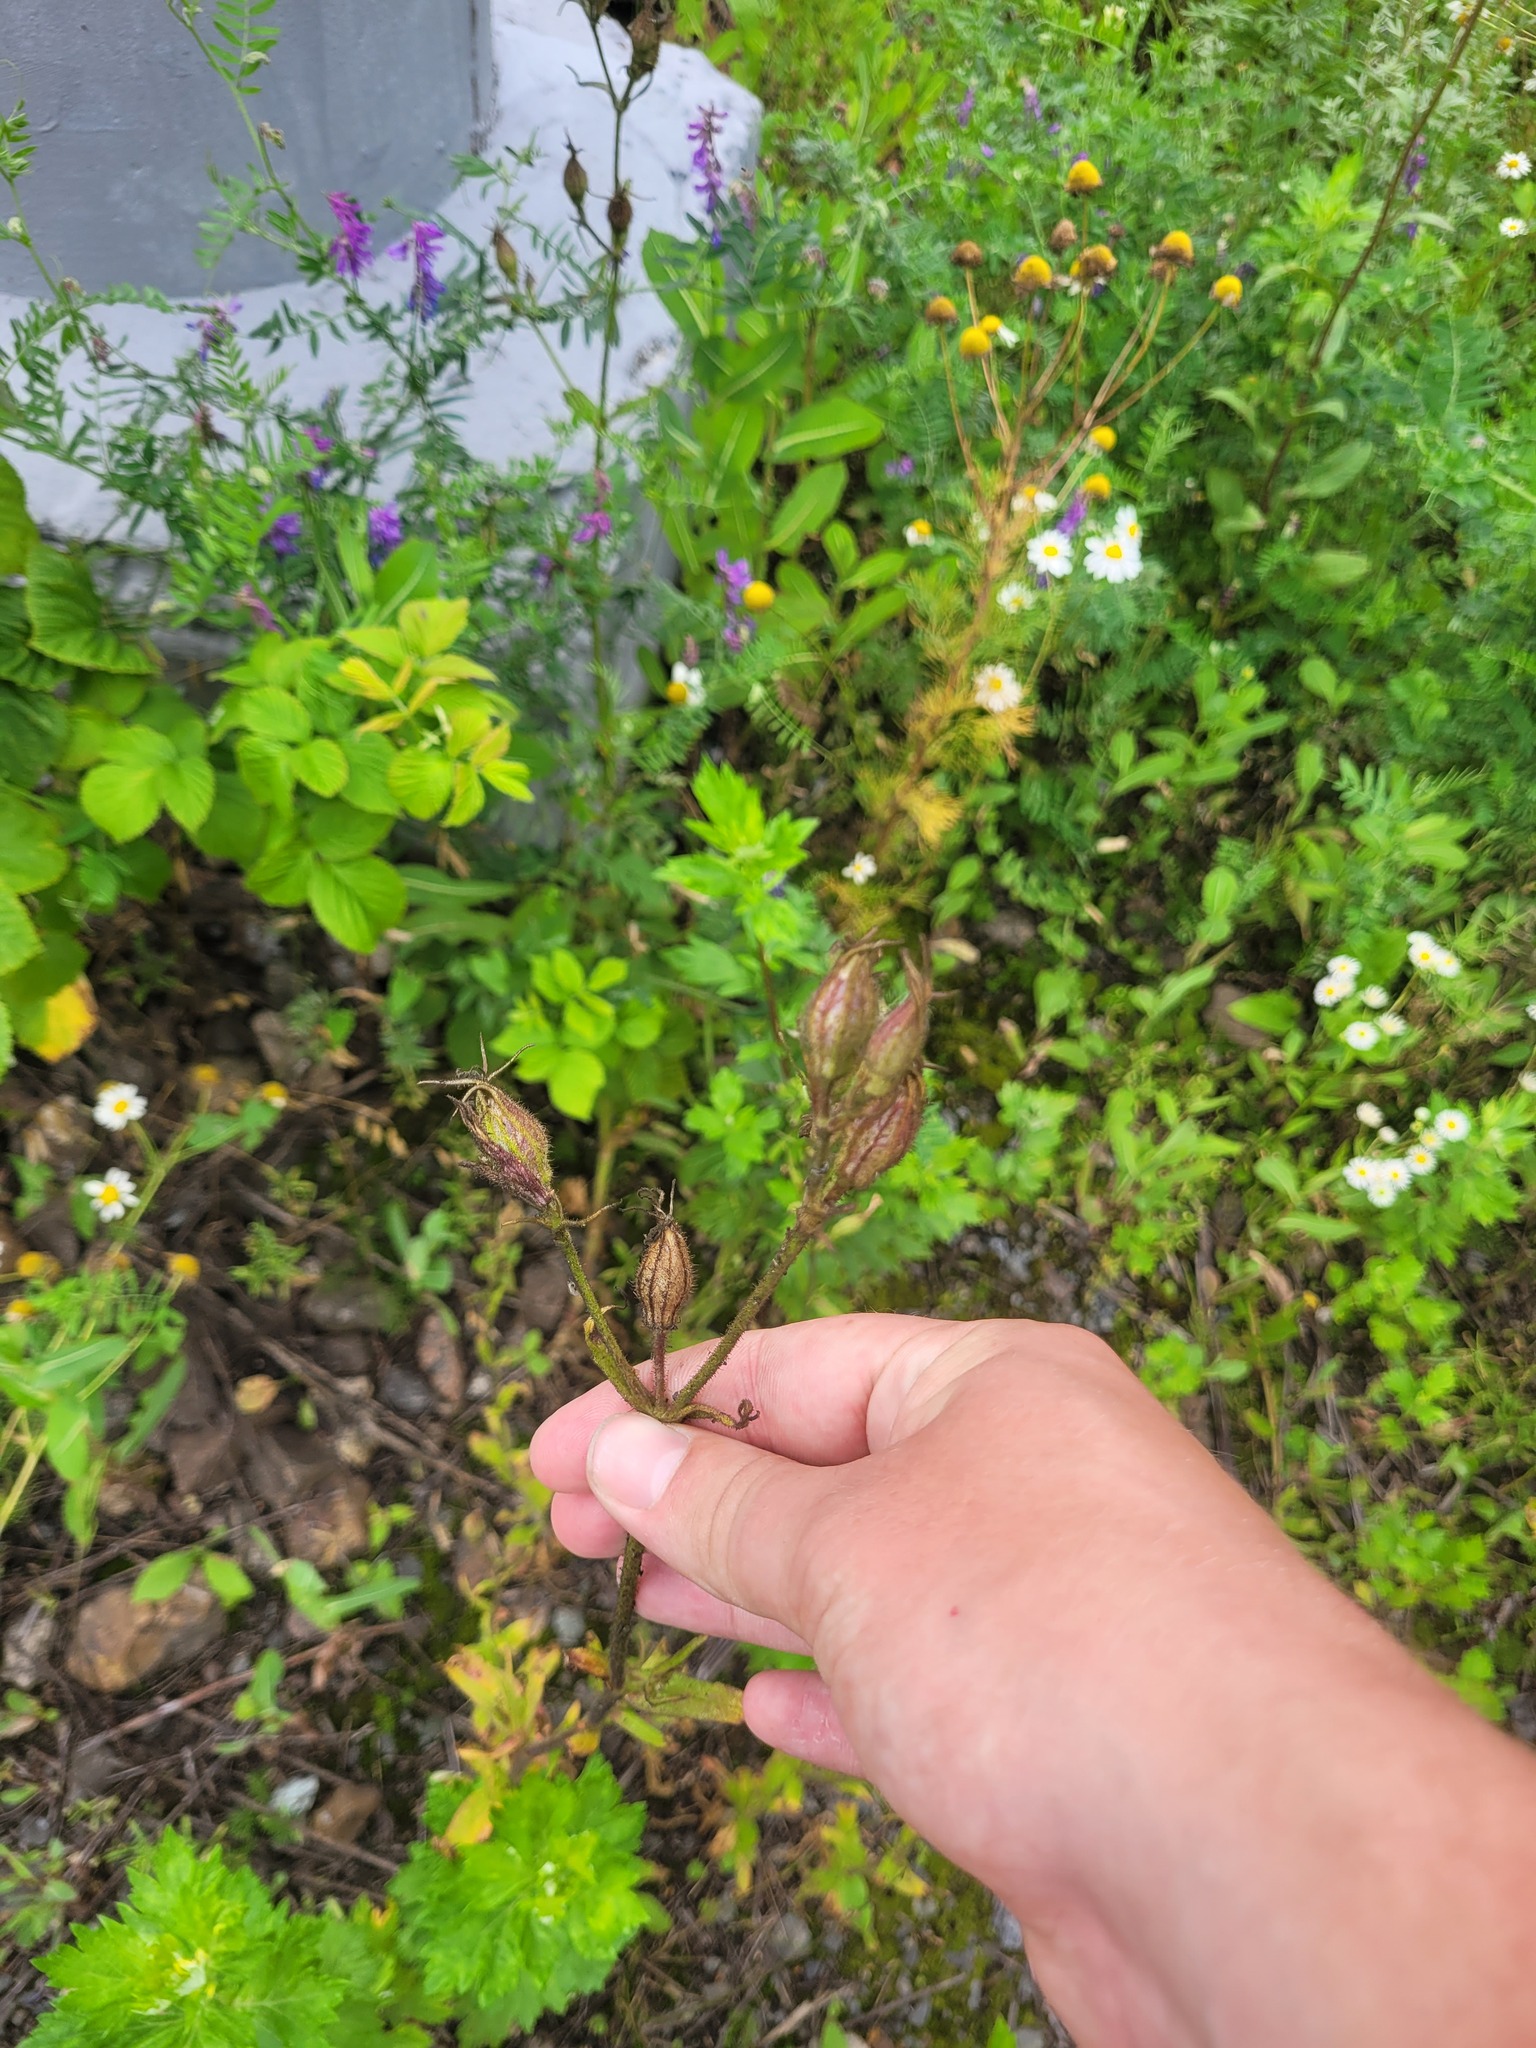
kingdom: Plantae
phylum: Tracheophyta
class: Magnoliopsida
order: Caryophyllales
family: Caryophyllaceae
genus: Silene
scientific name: Silene noctiflora
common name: Night-flowering catchfly
